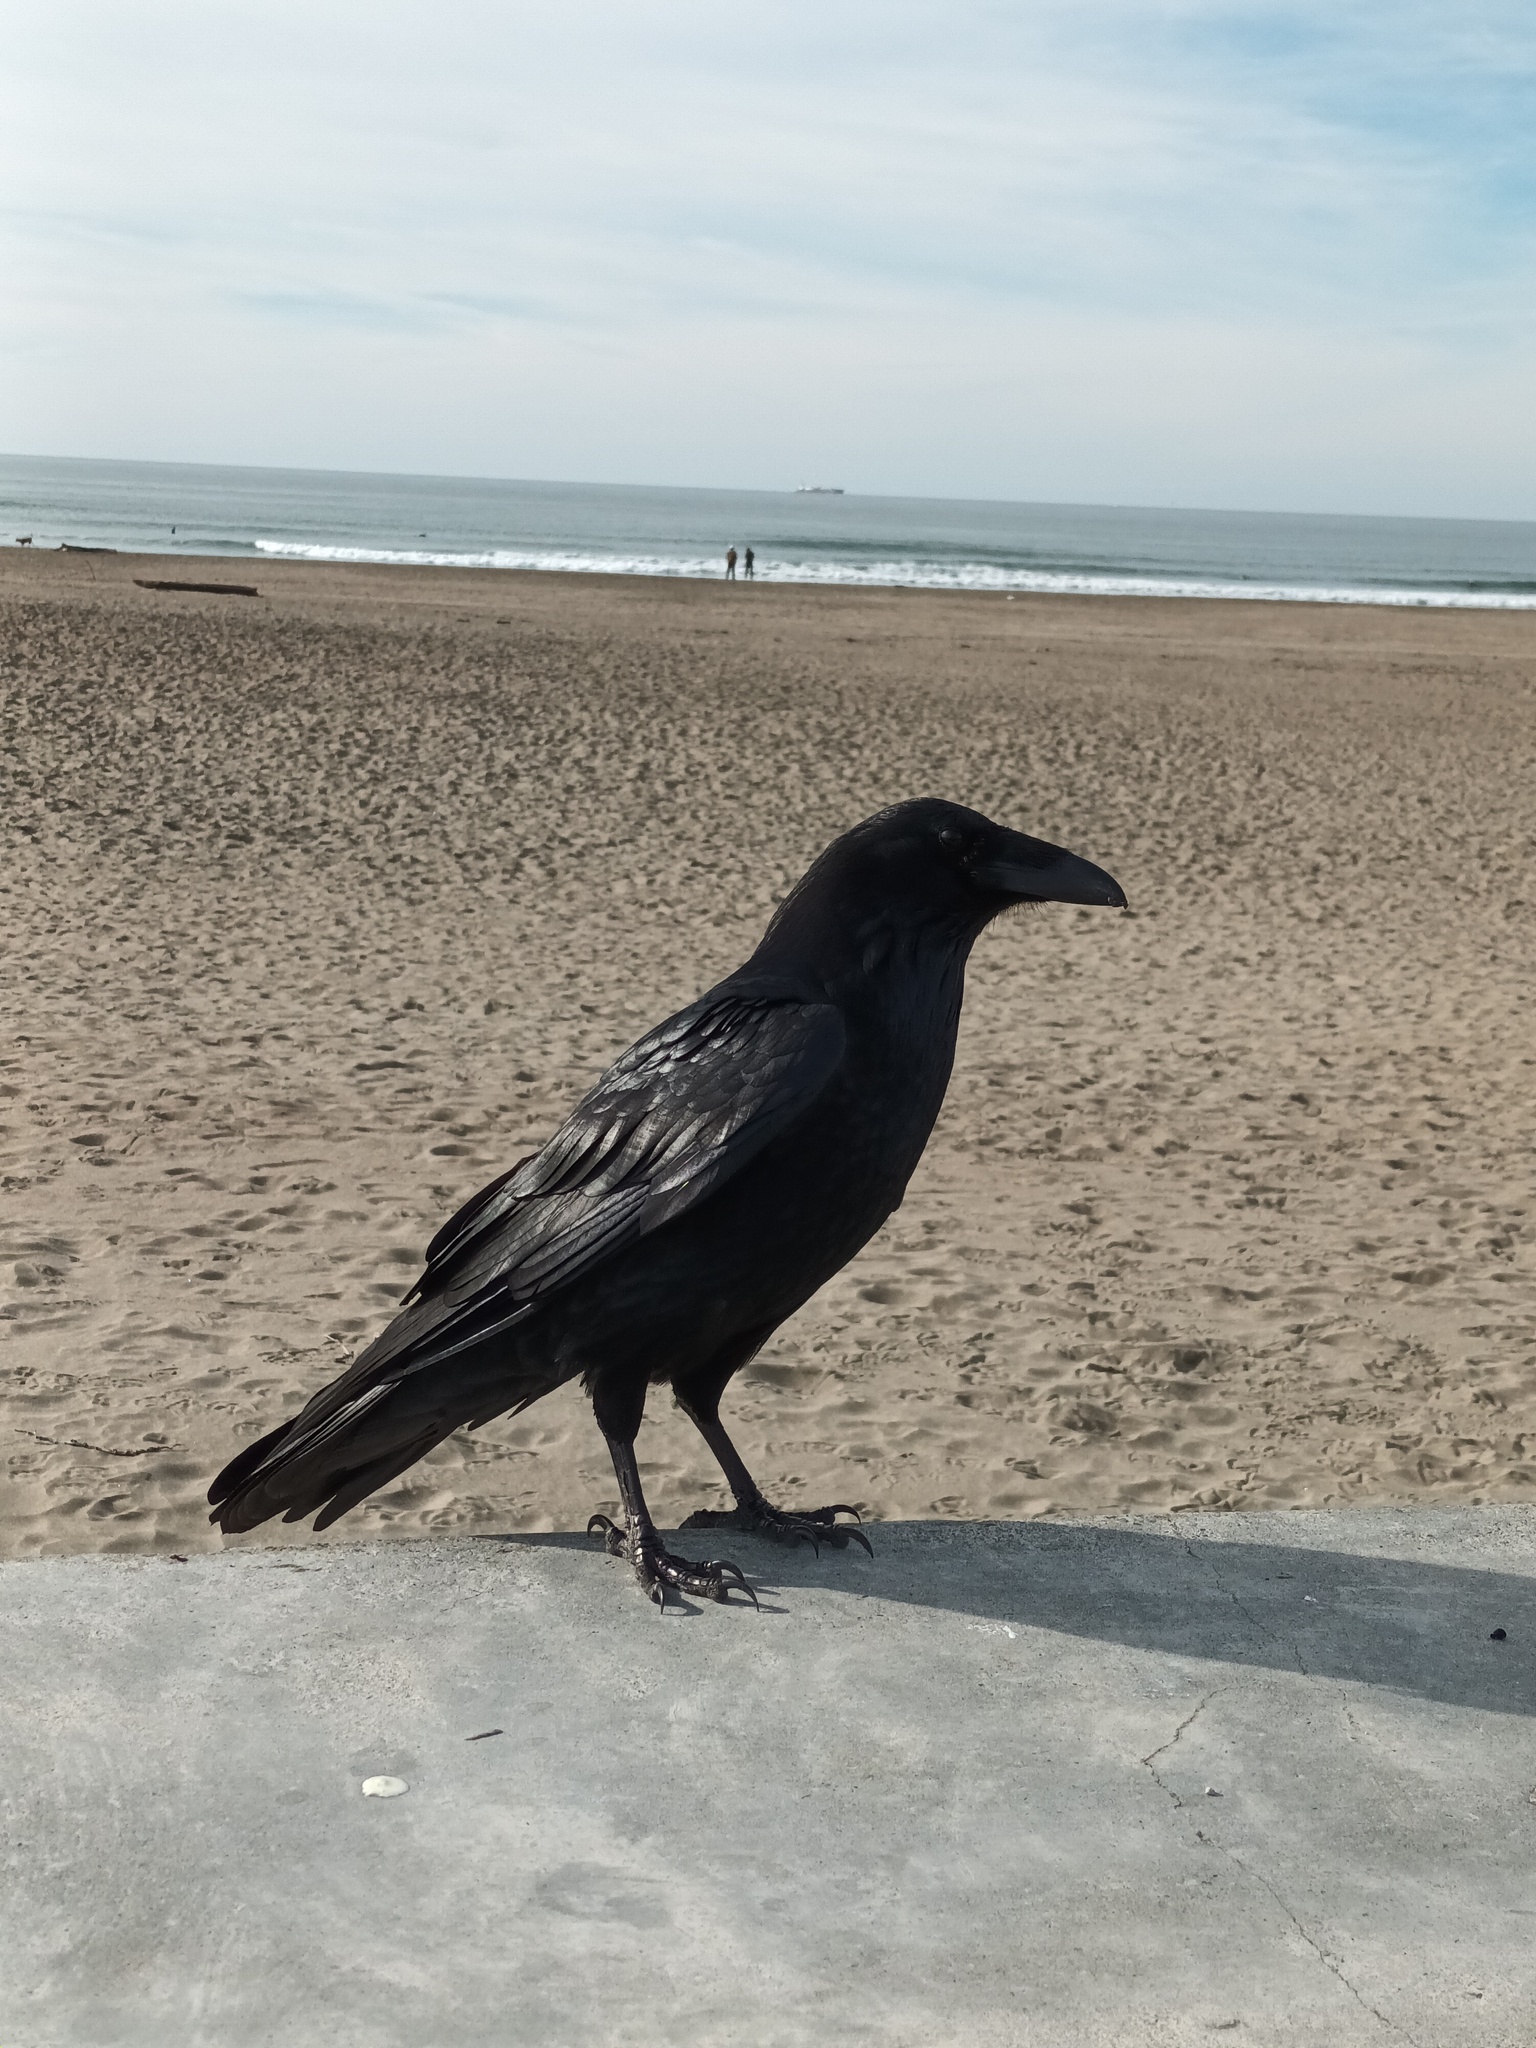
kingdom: Animalia
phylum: Chordata
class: Aves
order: Passeriformes
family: Corvidae
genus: Corvus
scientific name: Corvus corax
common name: Common raven
